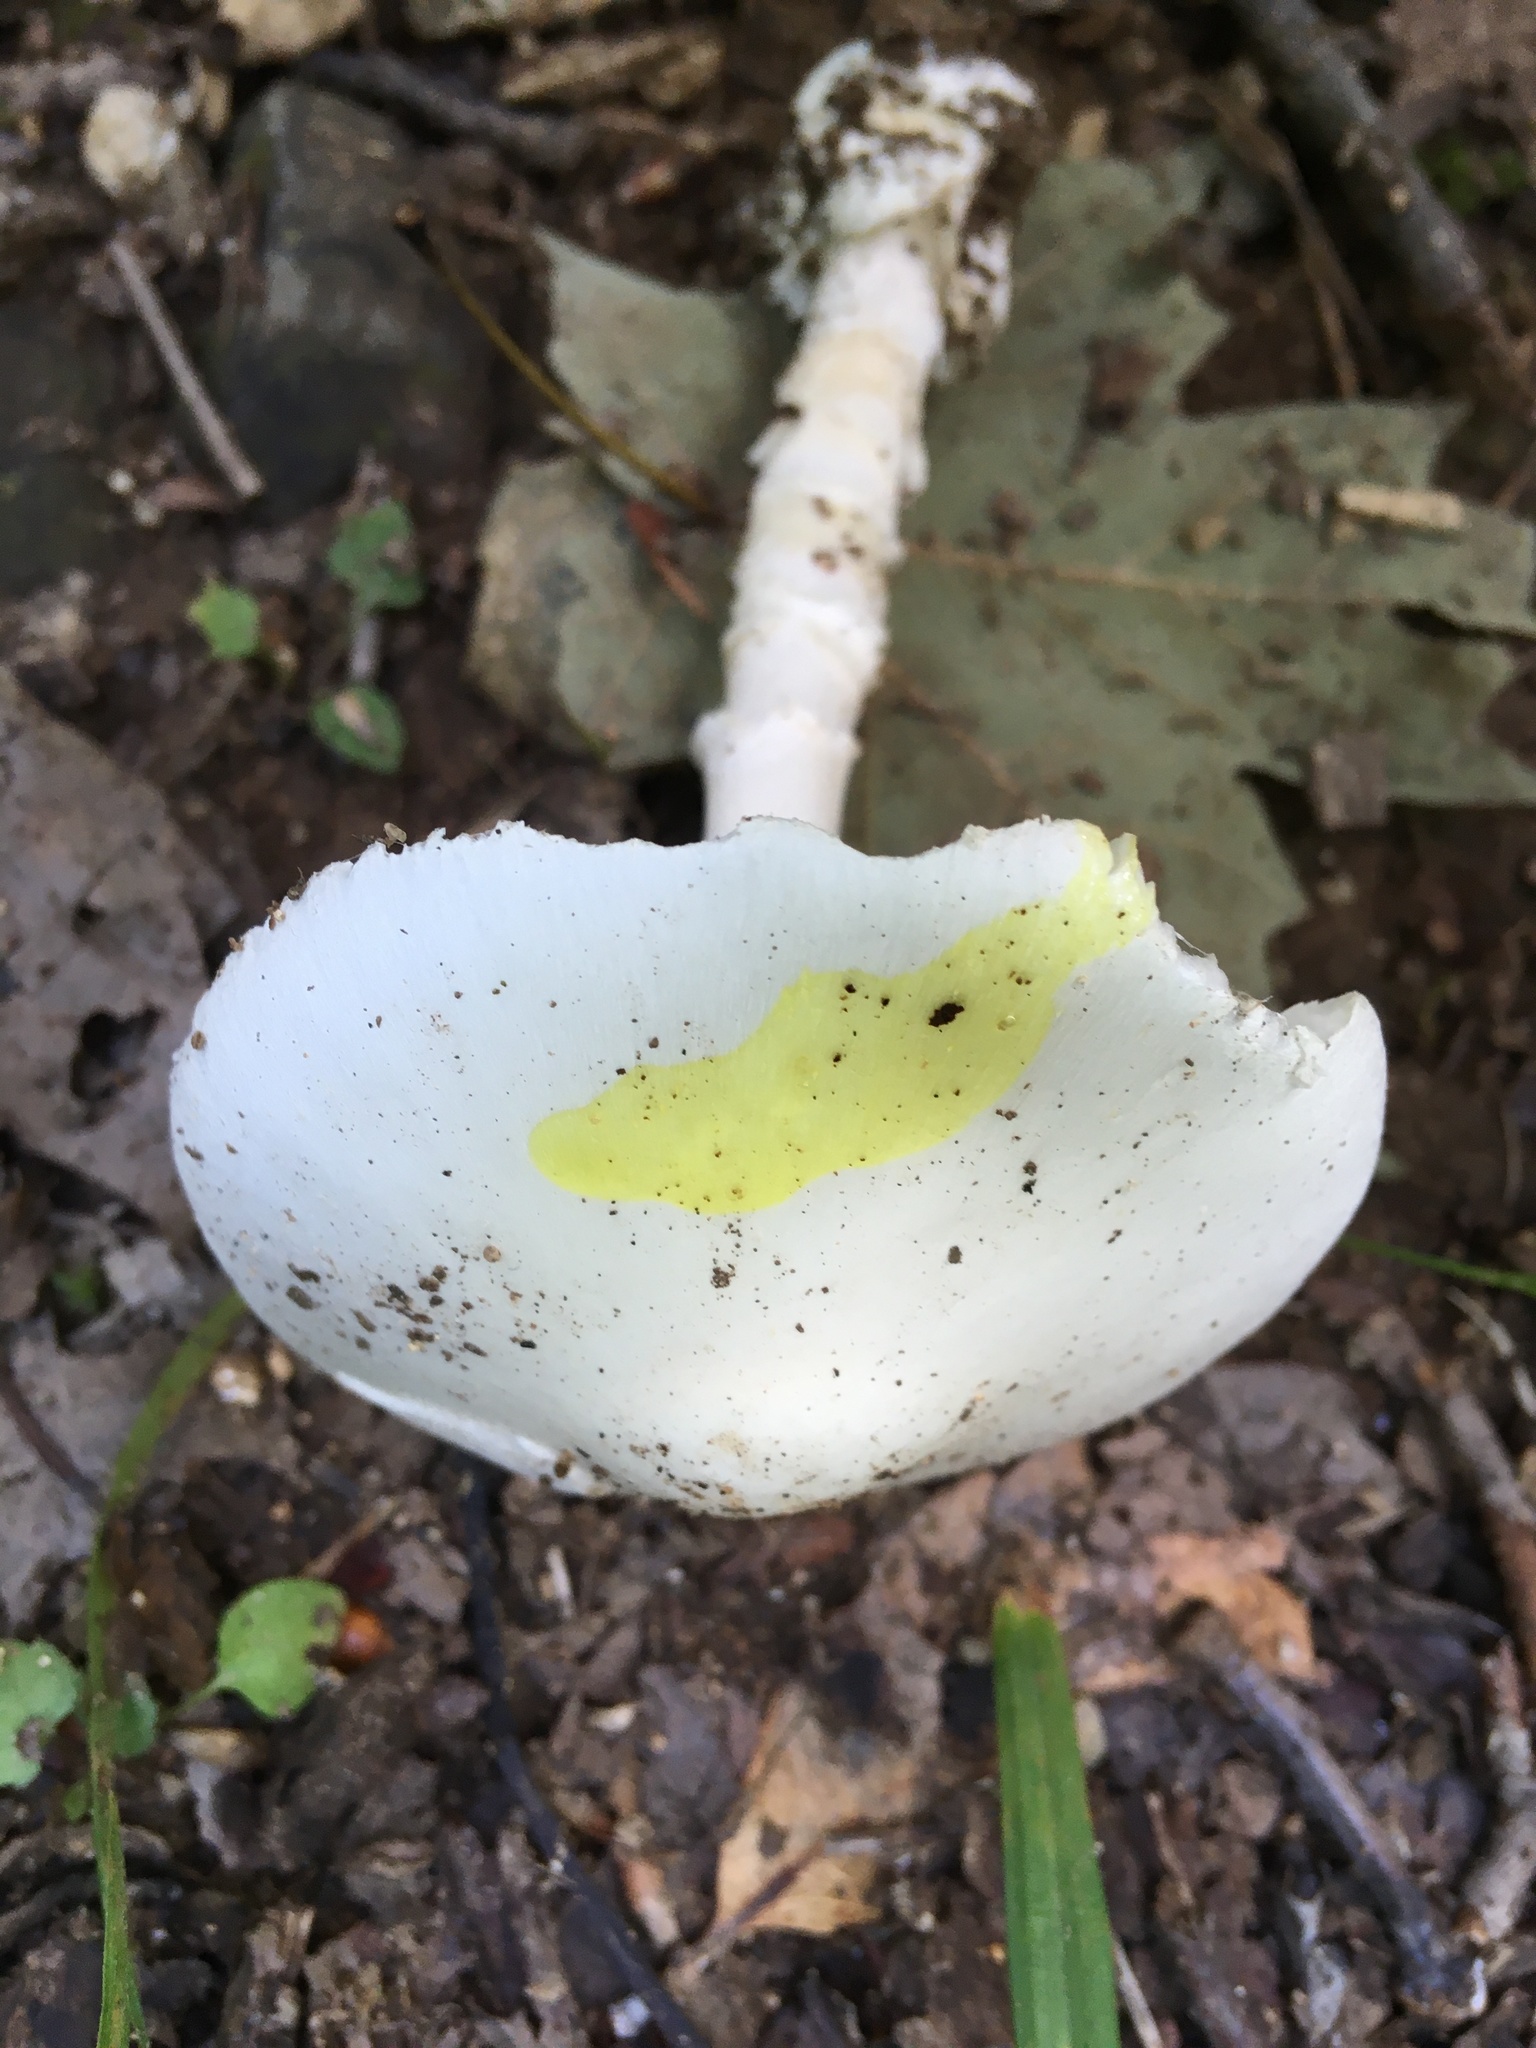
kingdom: Fungi
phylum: Basidiomycota
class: Agaricomycetes
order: Agaricales
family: Amanitaceae
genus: Amanita
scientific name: Amanita bisporigera
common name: Eastern north american destroying angel
